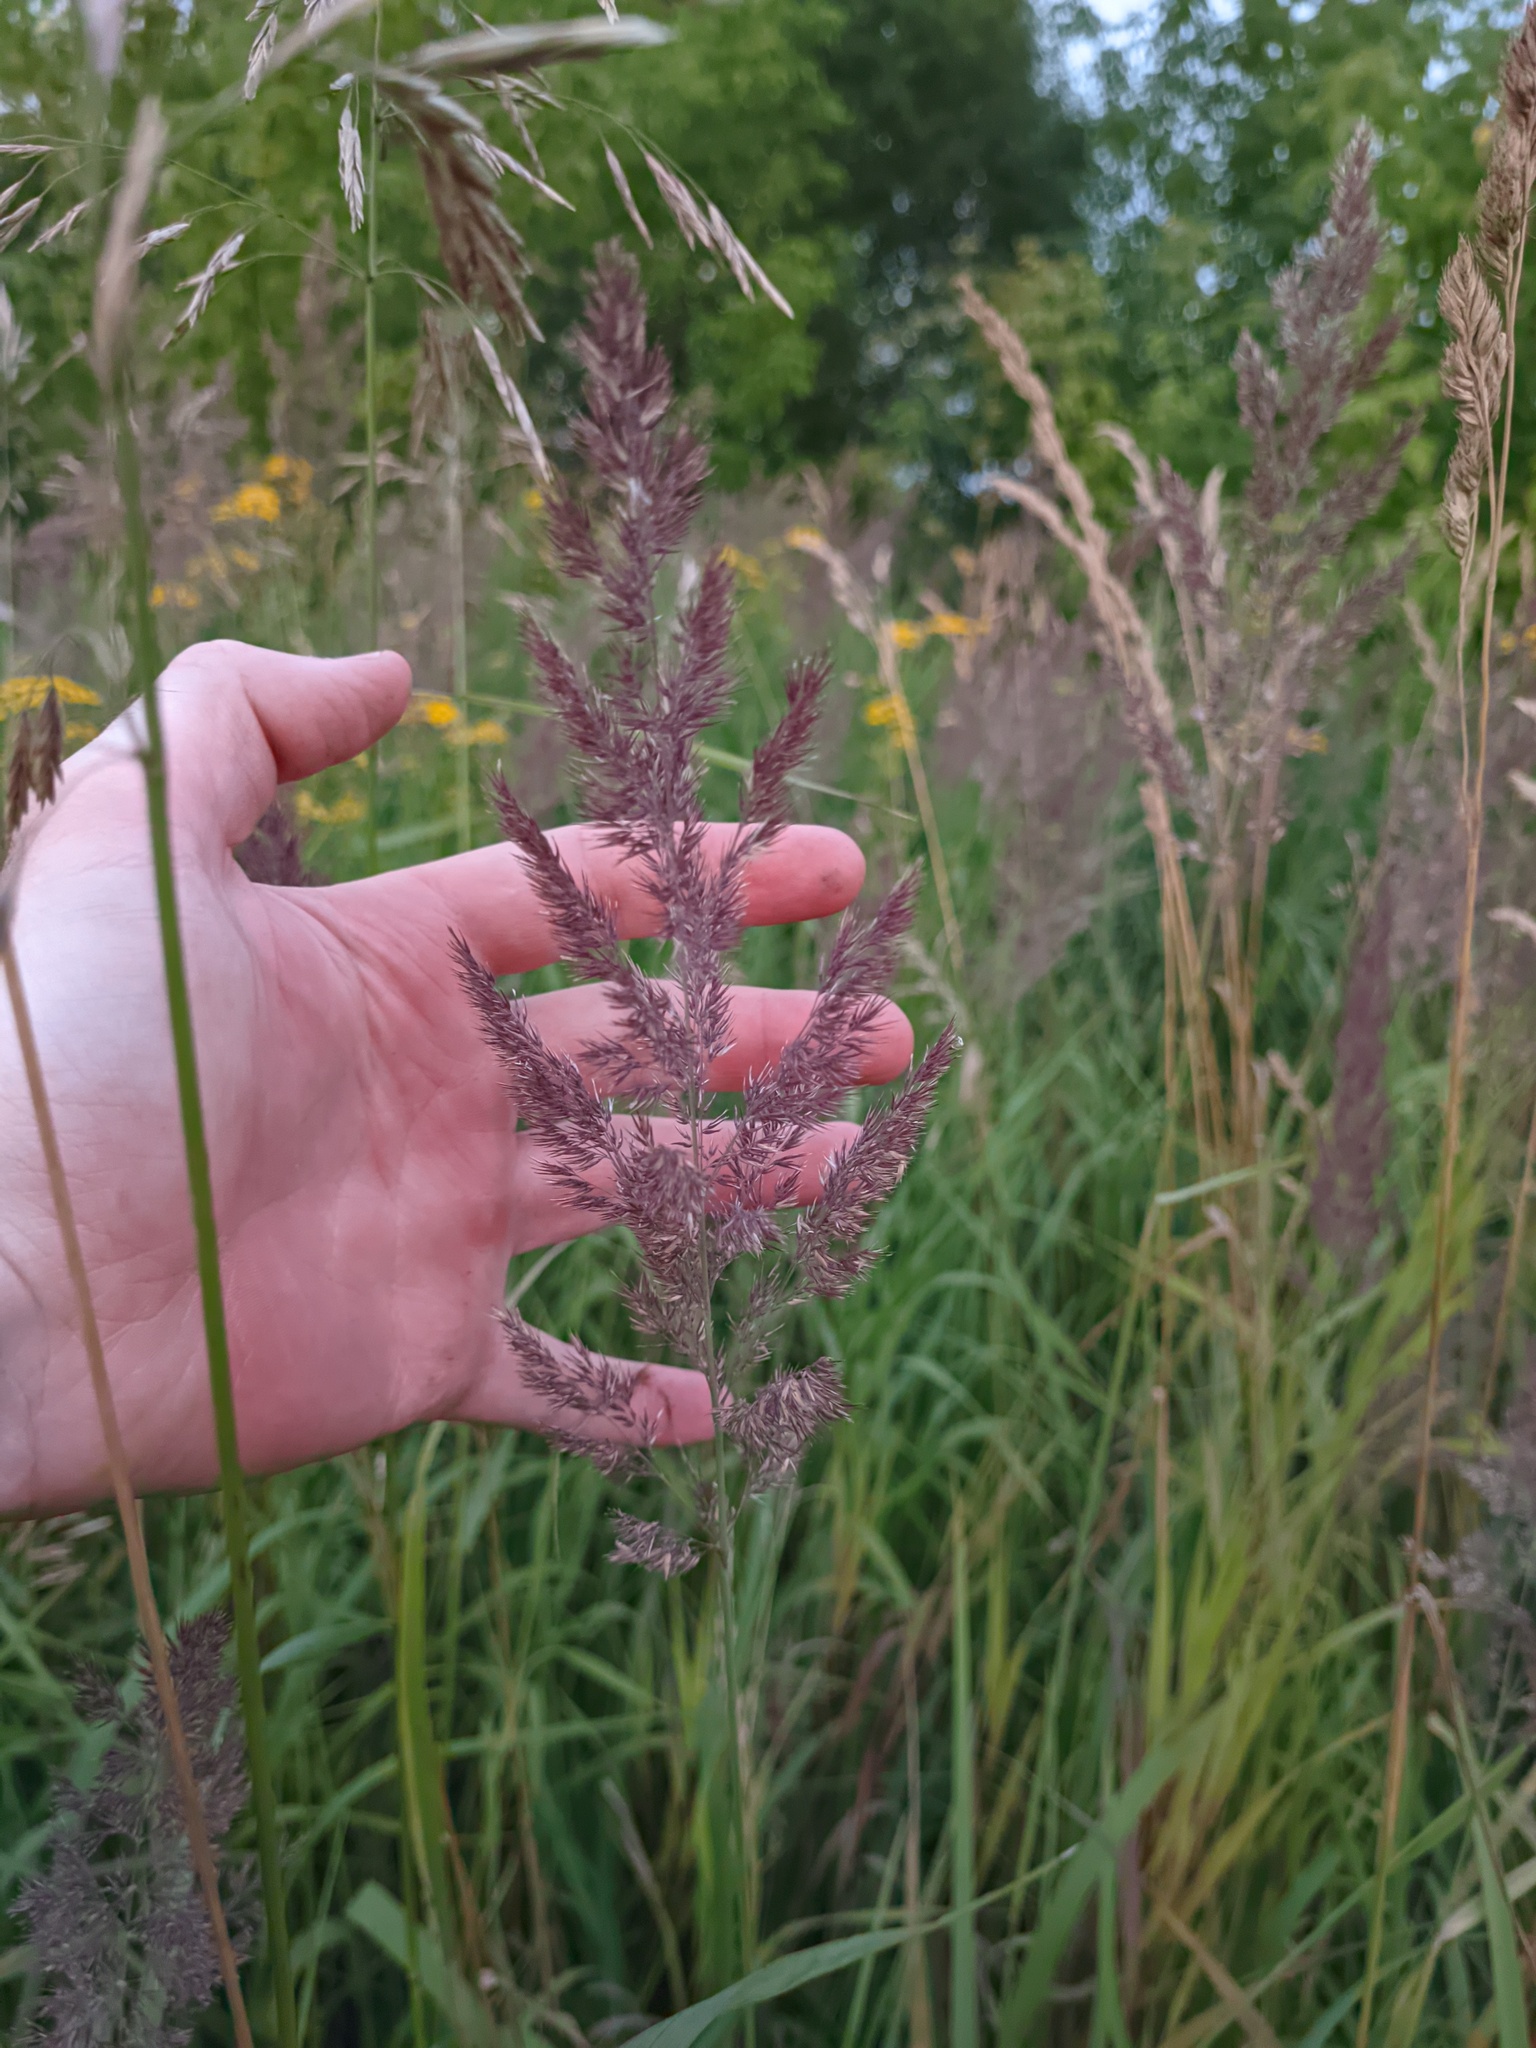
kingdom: Plantae
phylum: Tracheophyta
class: Liliopsida
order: Poales
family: Poaceae
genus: Calamagrostis
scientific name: Calamagrostis epigejos
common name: Wood small-reed
